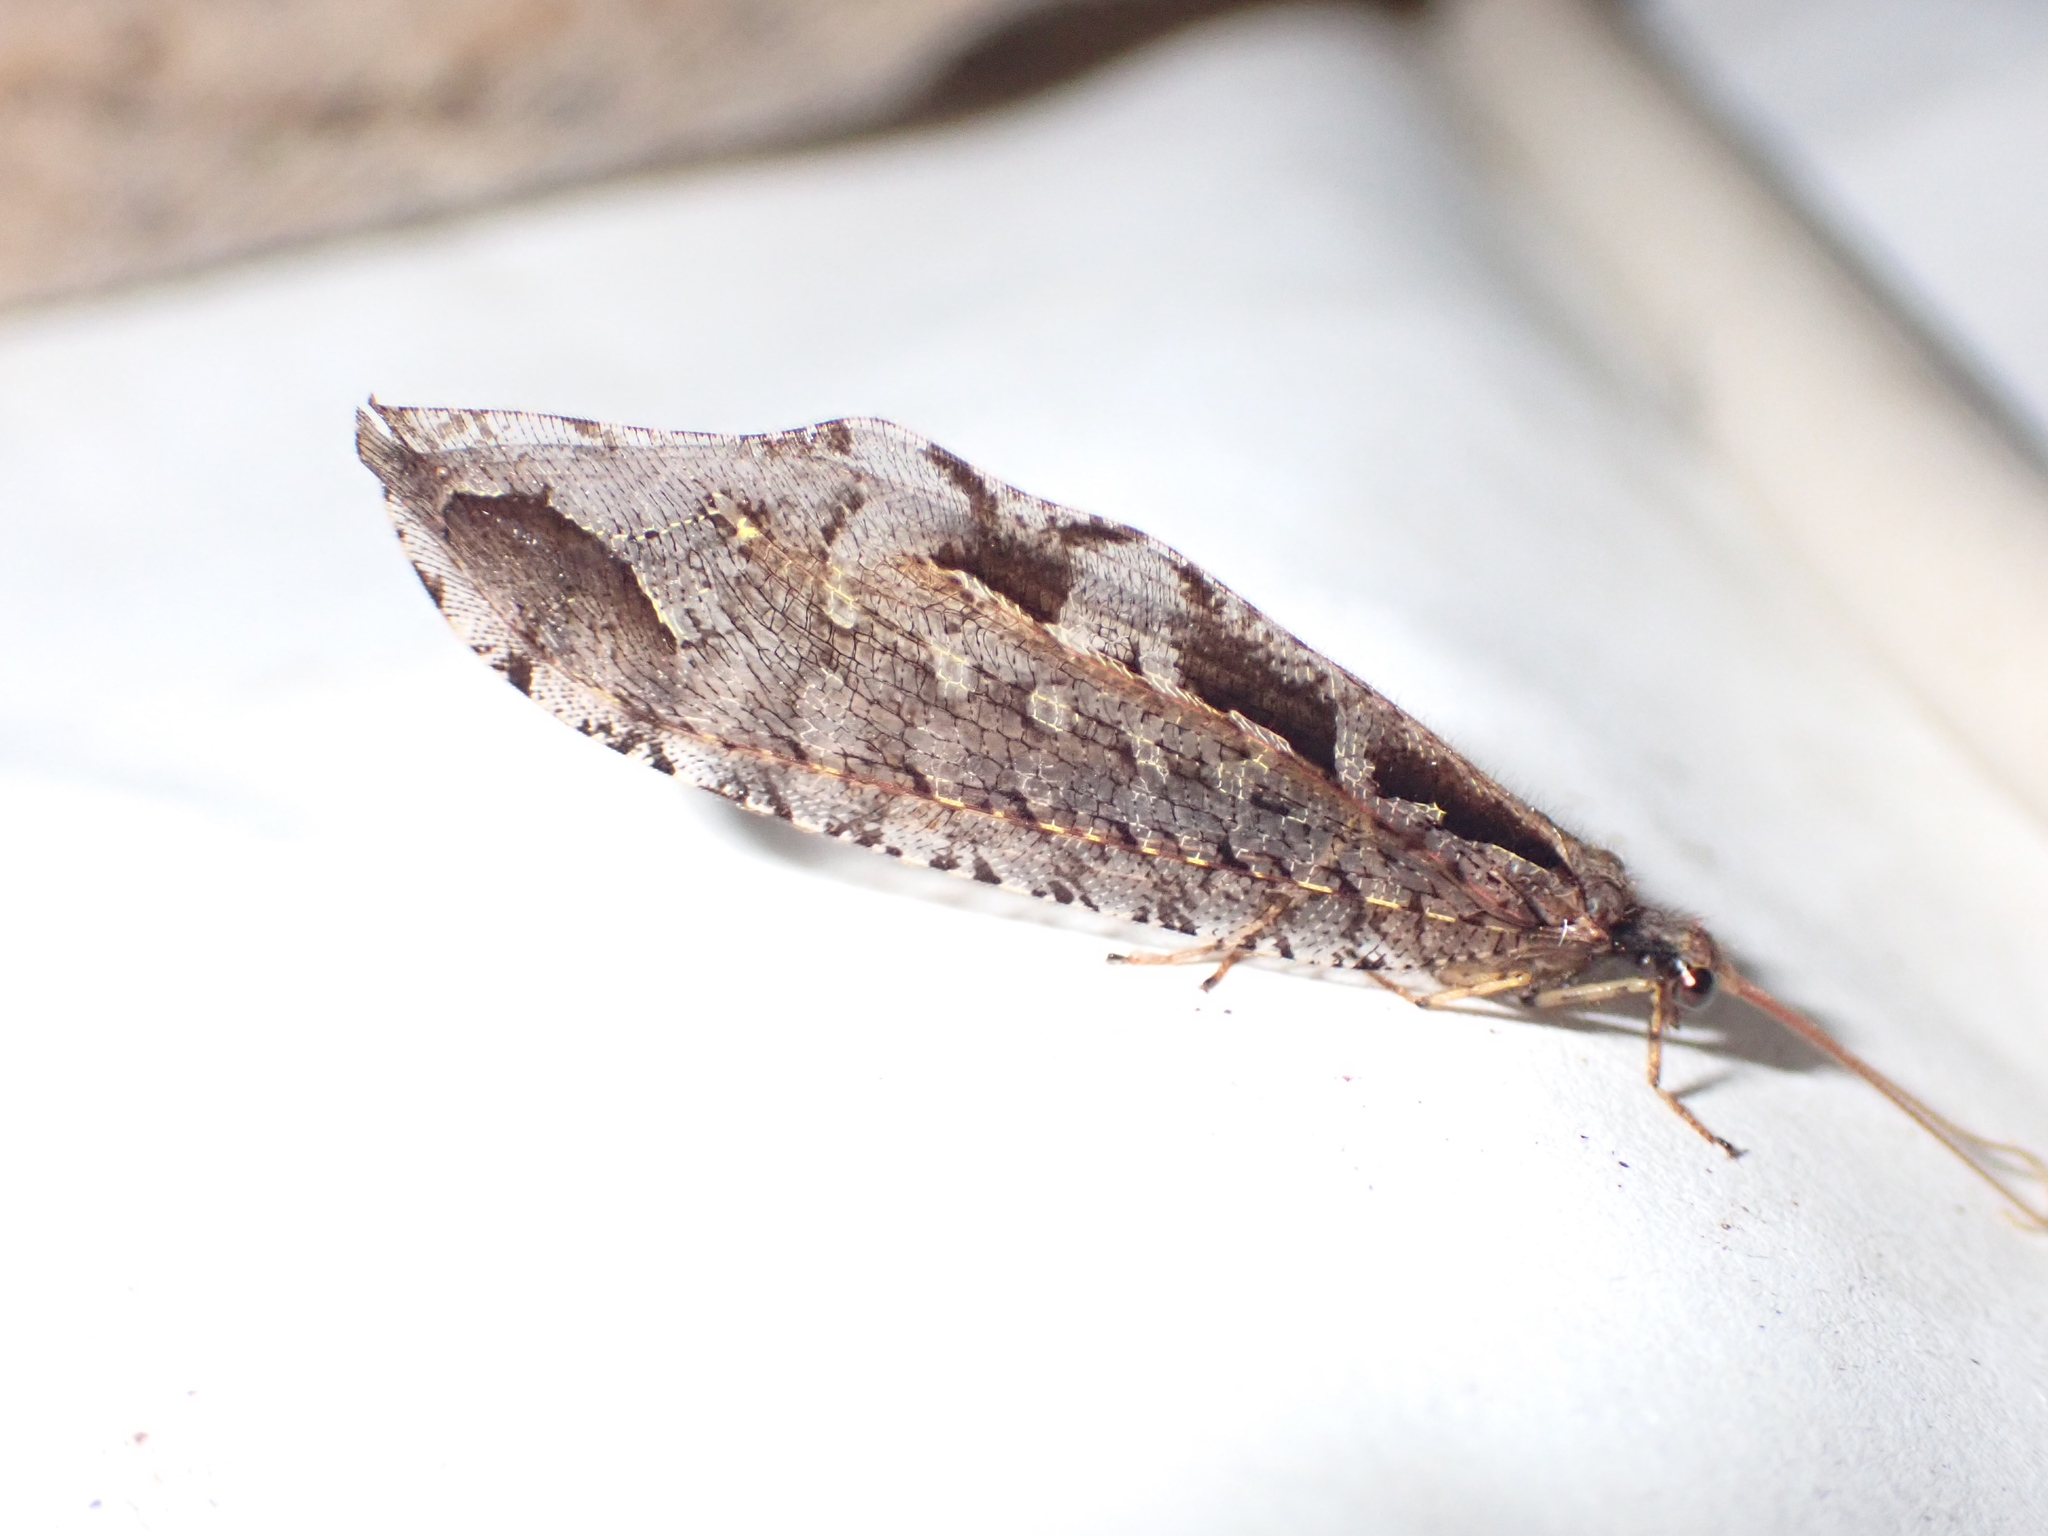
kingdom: Animalia
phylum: Arthropoda
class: Insecta
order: Neuroptera
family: Osmylidae
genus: Kempynus
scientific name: Kempynus incisus
